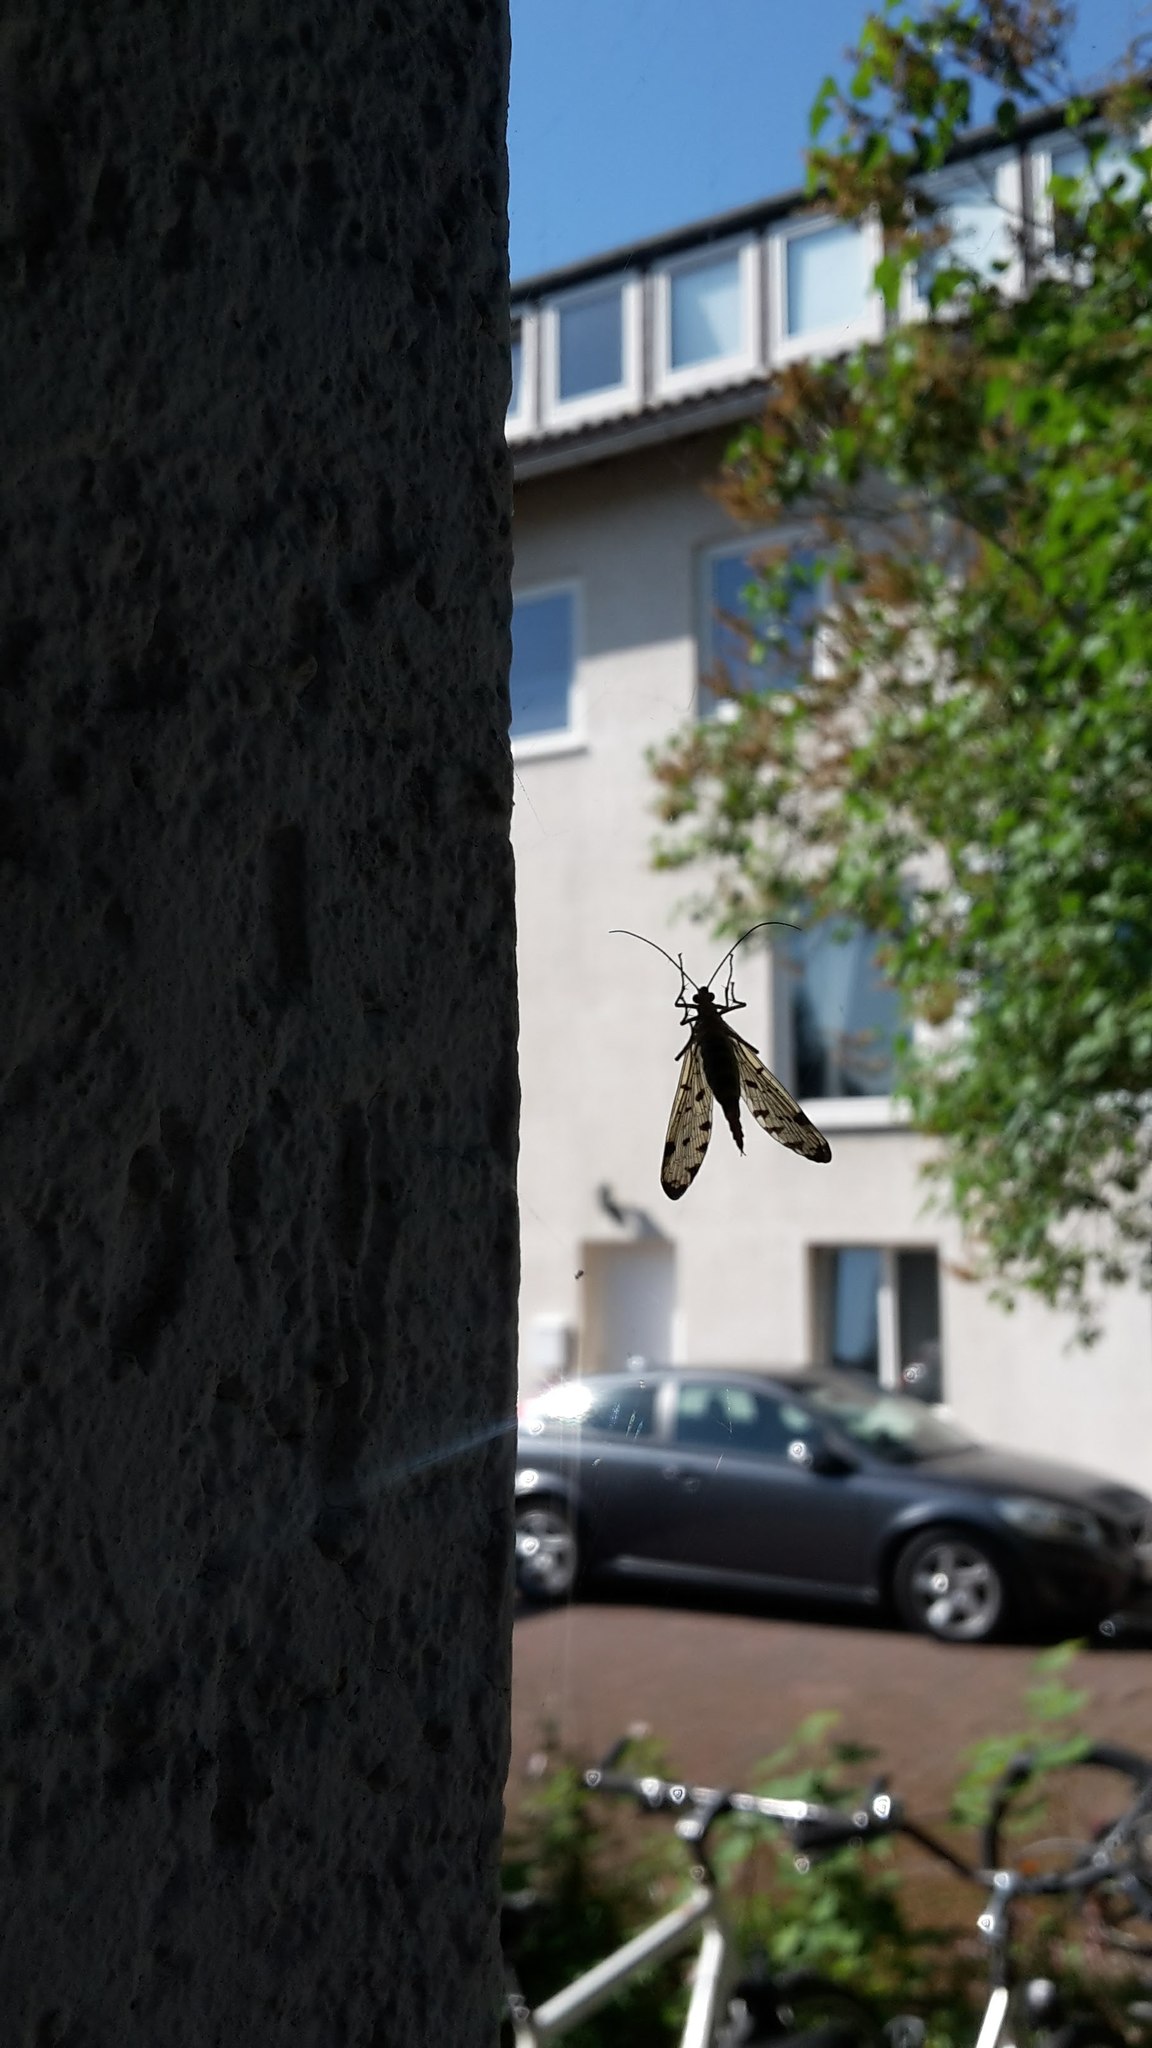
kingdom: Animalia
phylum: Arthropoda
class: Insecta
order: Mecoptera
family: Panorpidae
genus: Panorpa
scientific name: Panorpa germanica
